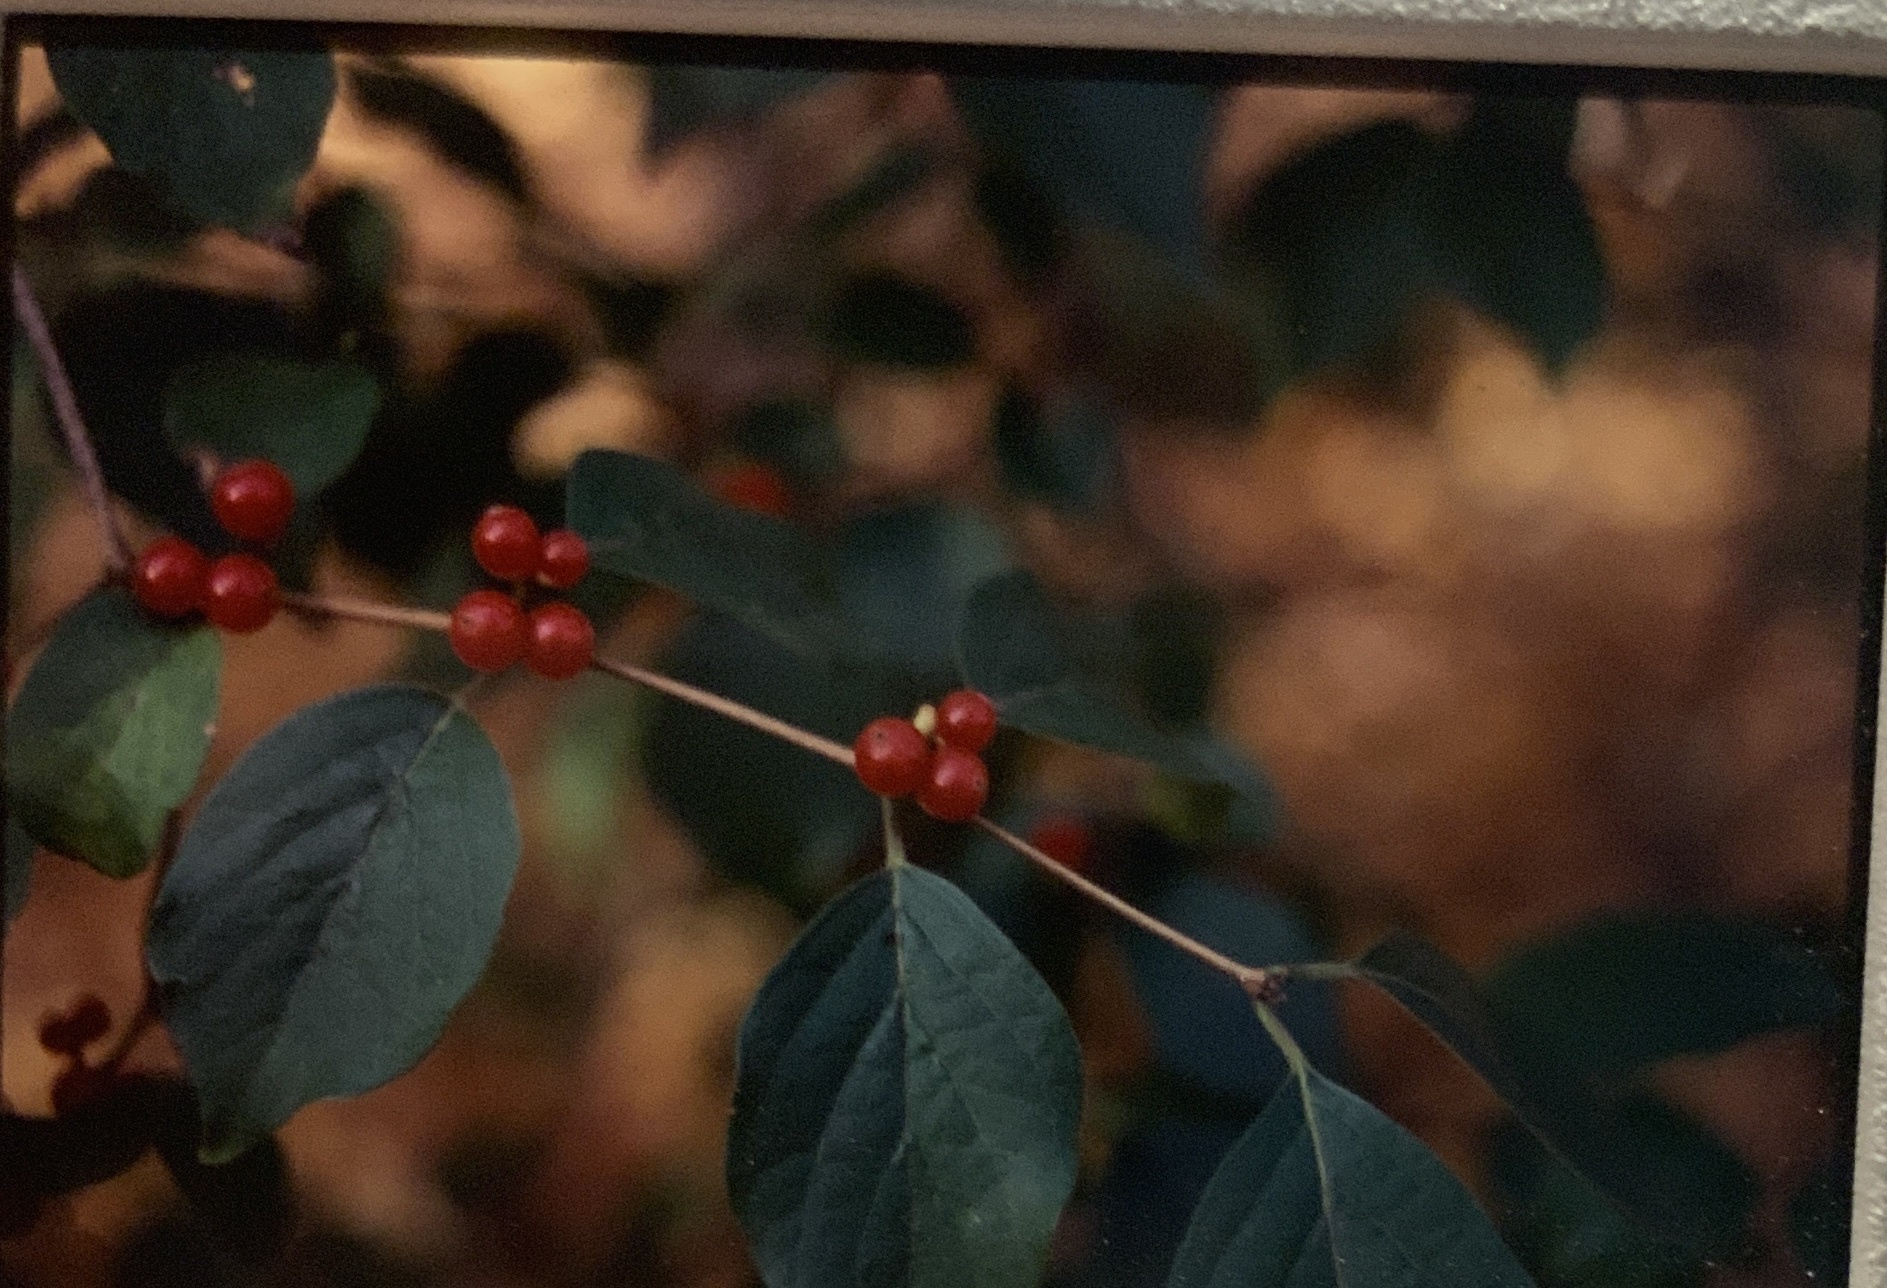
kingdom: Plantae
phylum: Tracheophyta
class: Magnoliopsida
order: Dipsacales
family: Caprifoliaceae
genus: Lonicera
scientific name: Lonicera maackii
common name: Amur honeysuckle
